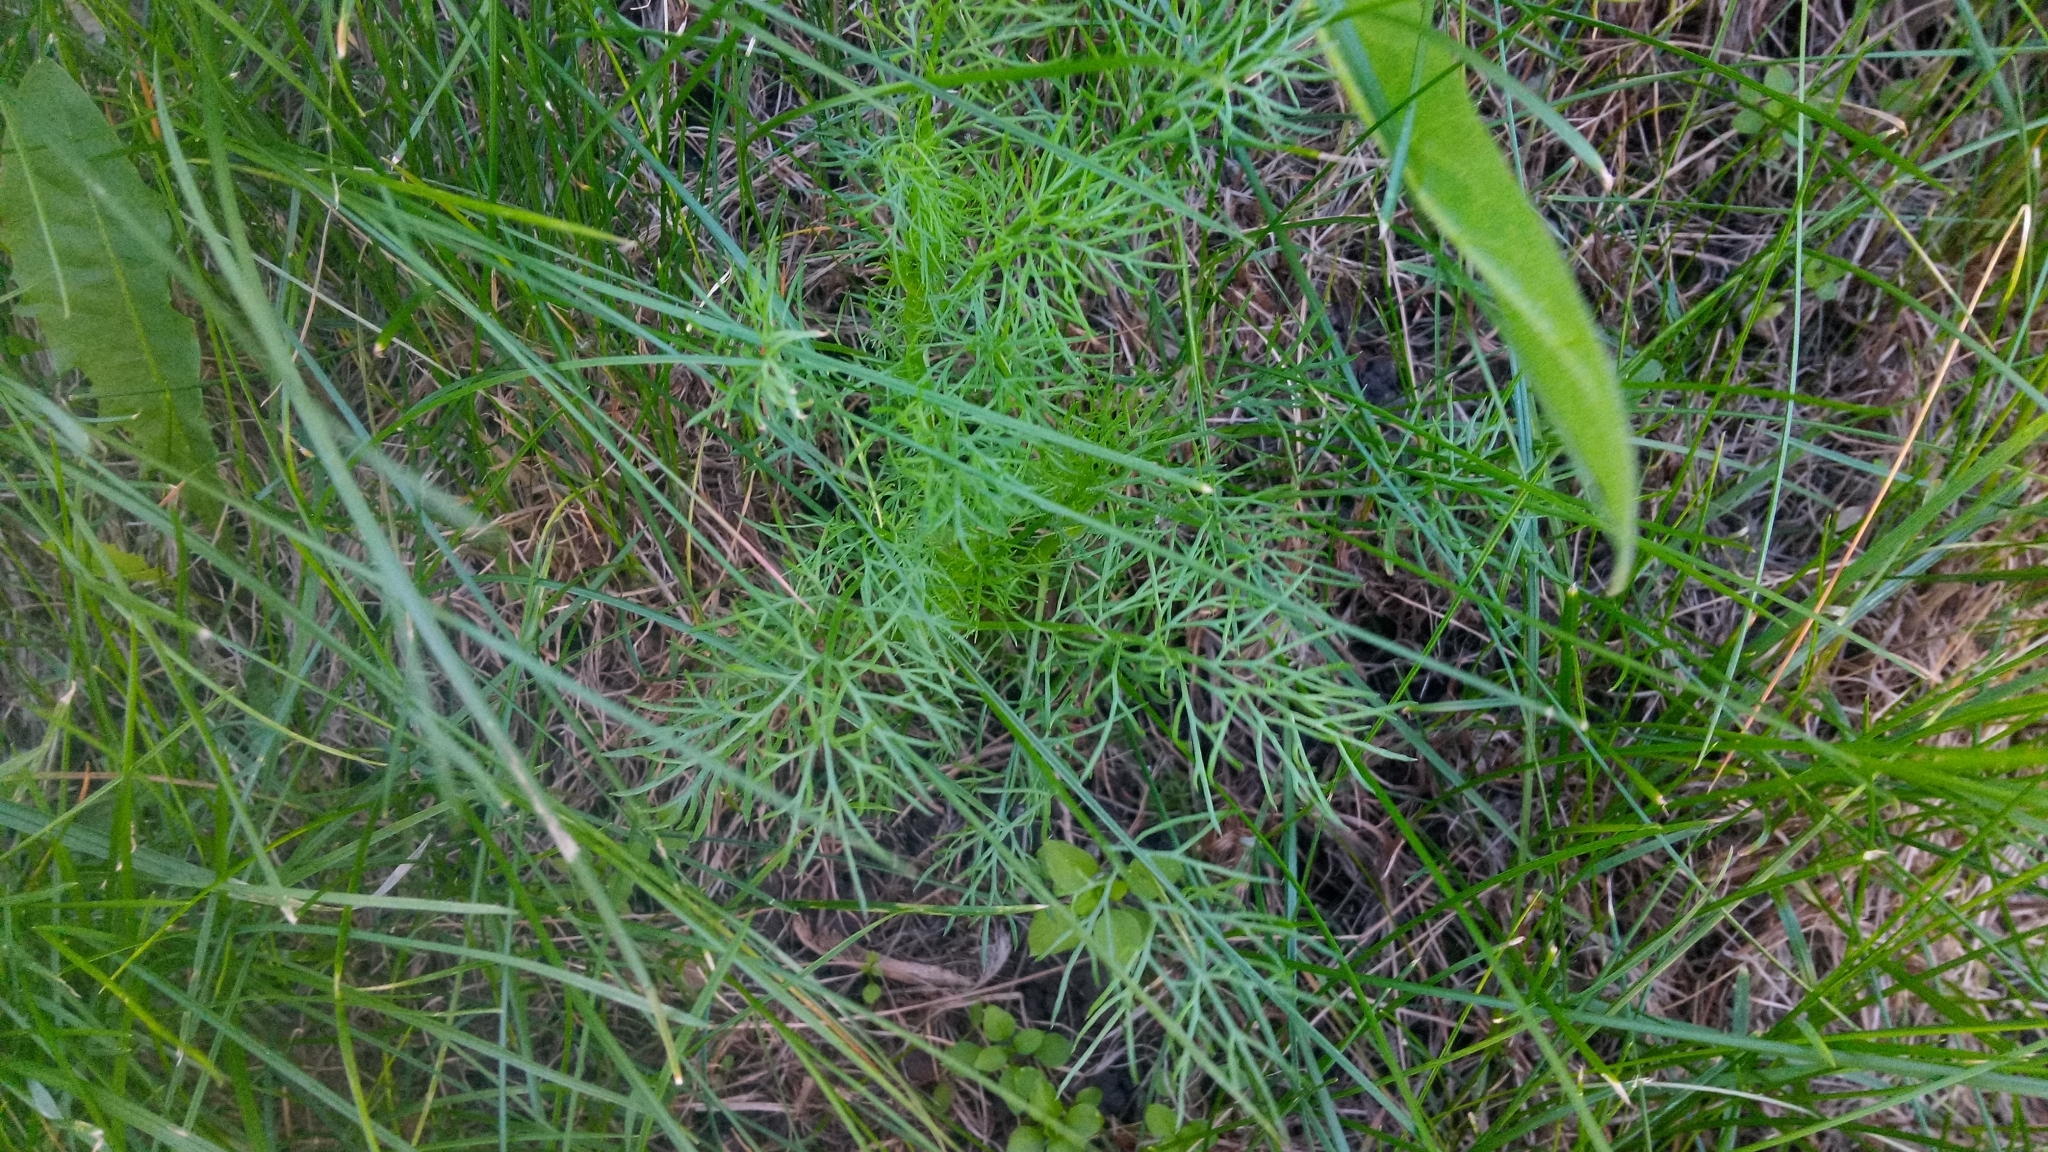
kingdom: Plantae
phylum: Tracheophyta
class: Magnoliopsida
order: Asterales
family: Asteraceae
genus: Tripleurospermum
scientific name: Tripleurospermum inodorum
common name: Scentless mayweed
